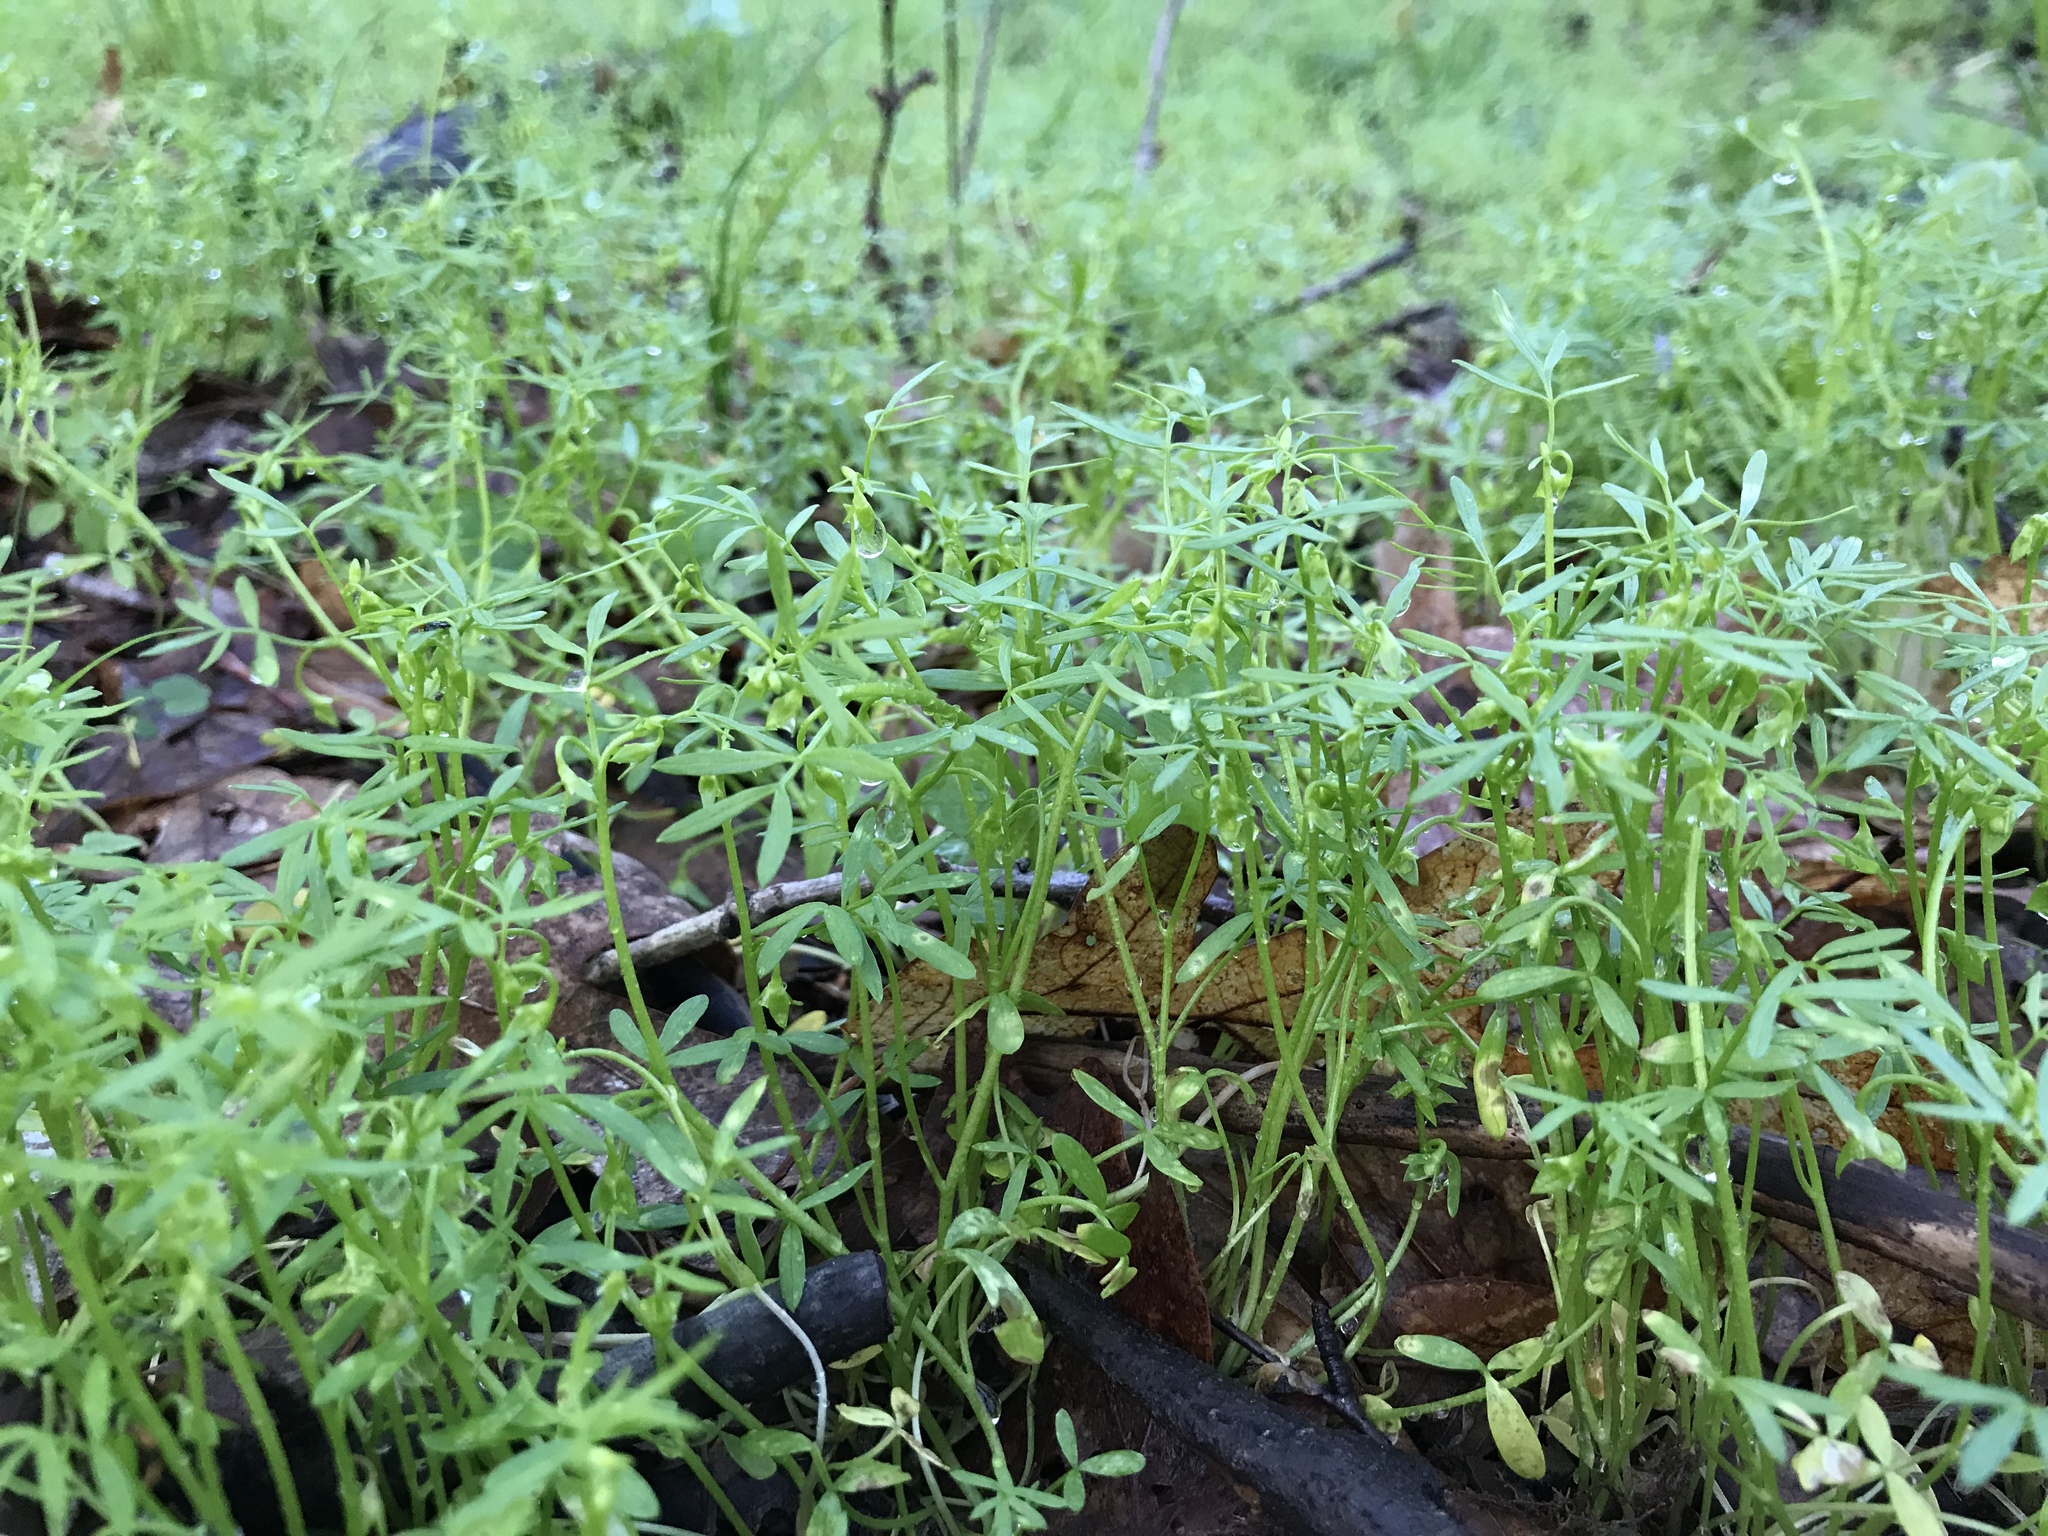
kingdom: Plantae
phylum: Tracheophyta
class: Magnoliopsida
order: Brassicales
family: Limnanthaceae
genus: Floerkea
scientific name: Floerkea proserpinacoides
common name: False mermaid
